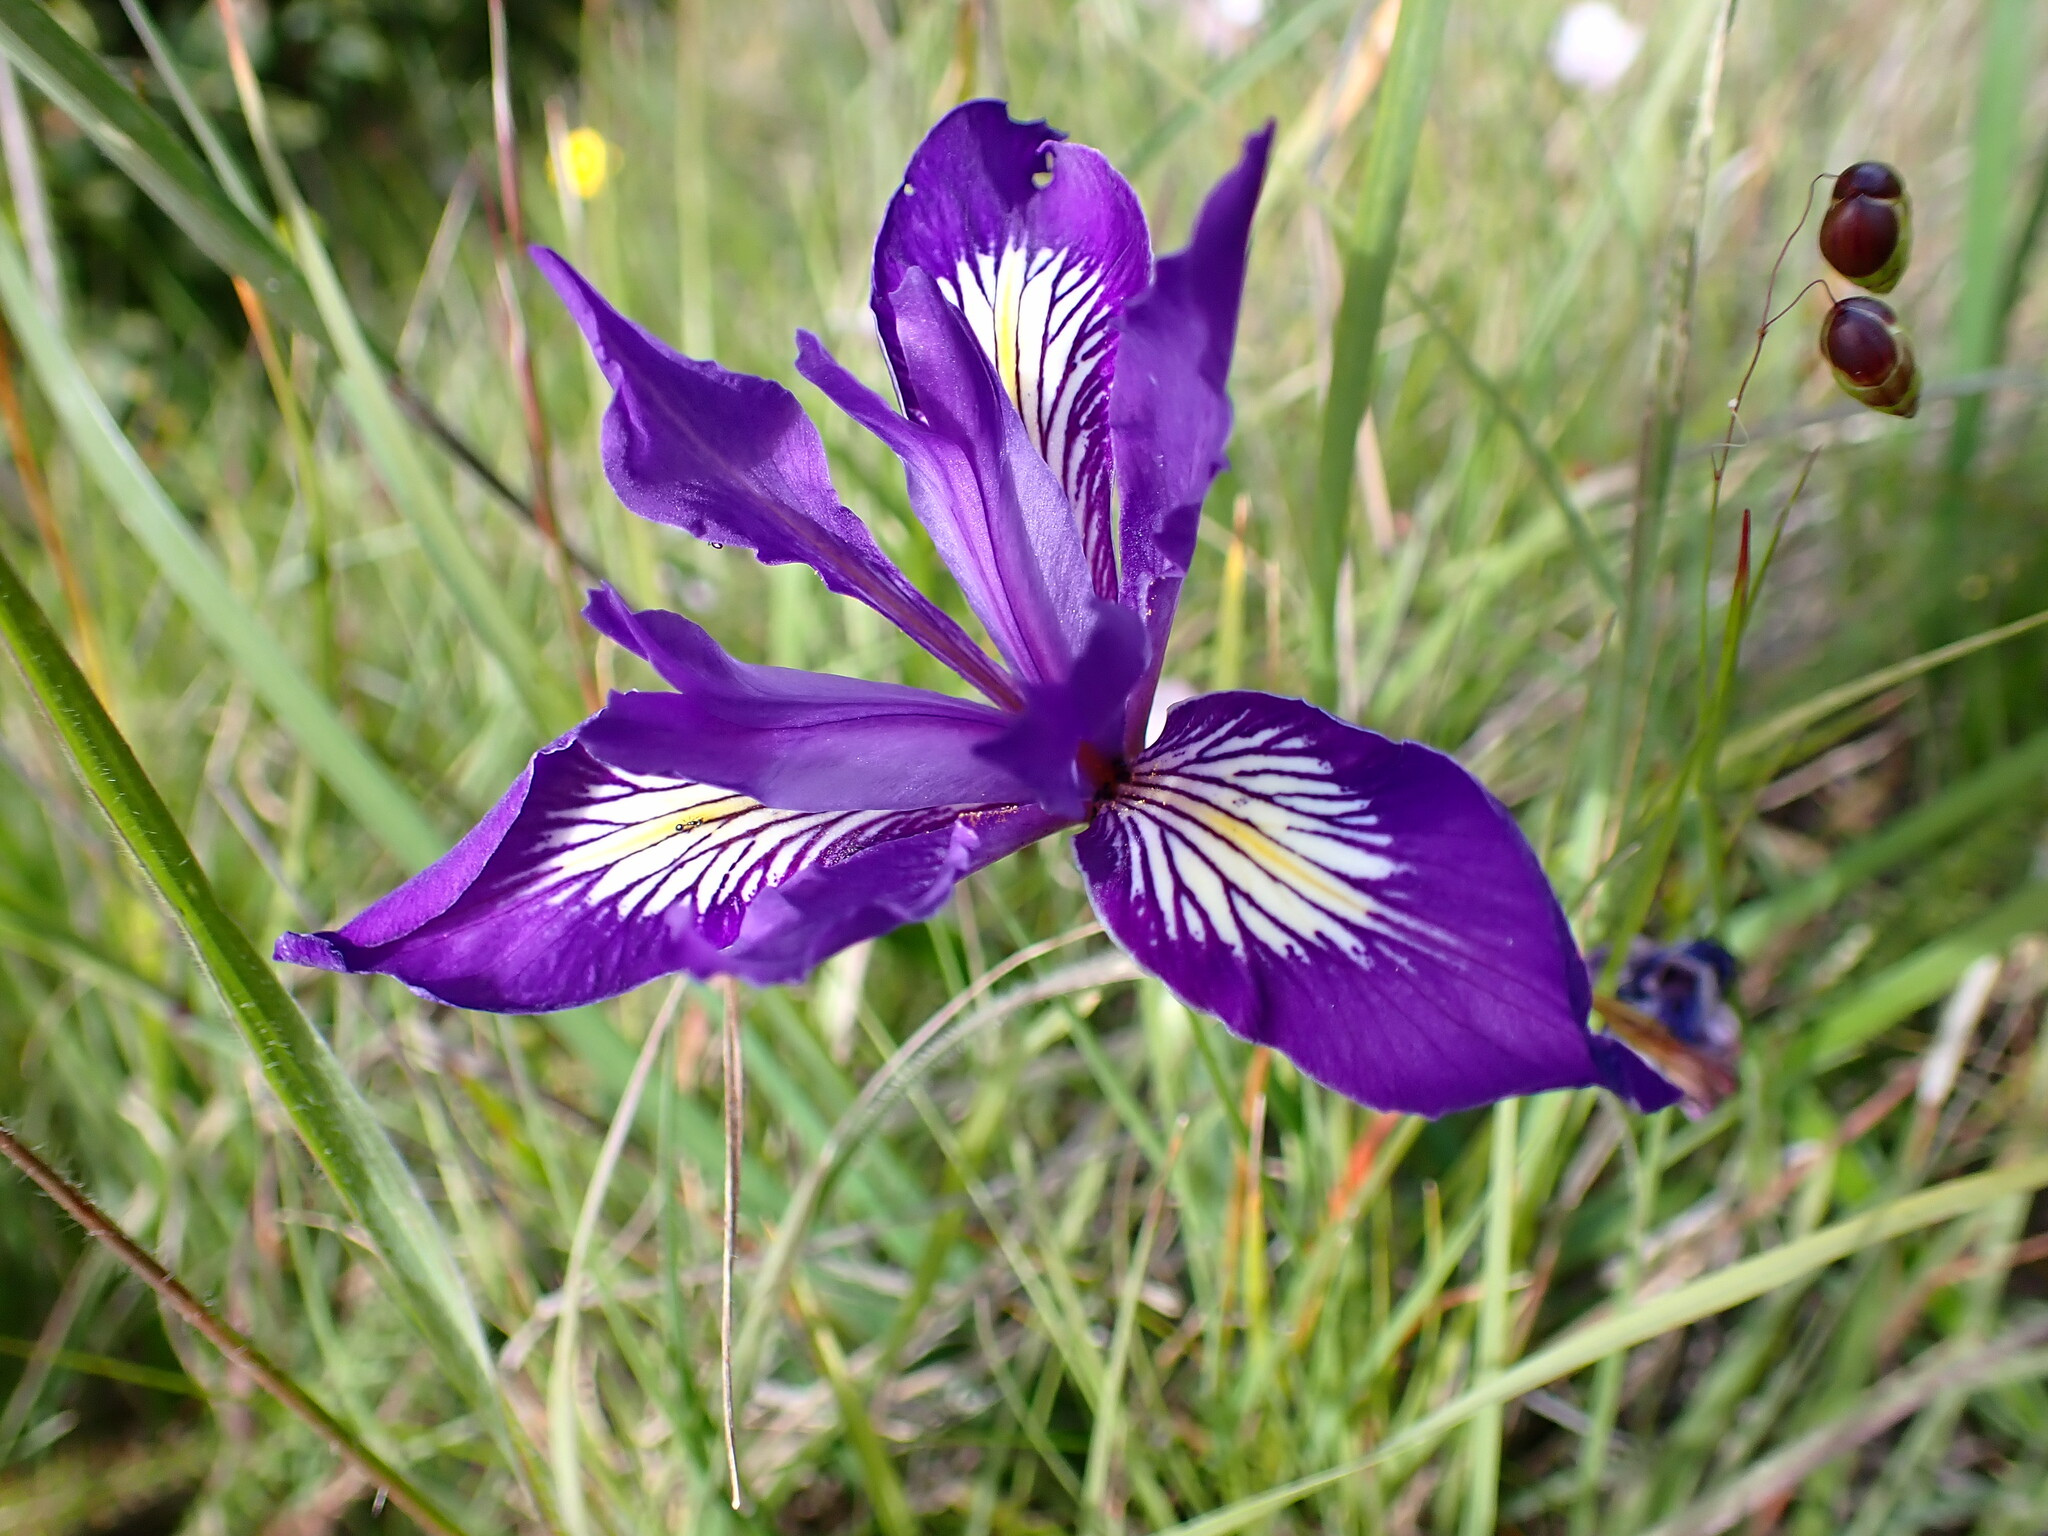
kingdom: Plantae
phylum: Tracheophyta
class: Liliopsida
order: Asparagales
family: Iridaceae
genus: Iris
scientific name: Iris macrosiphon
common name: Ground iris
